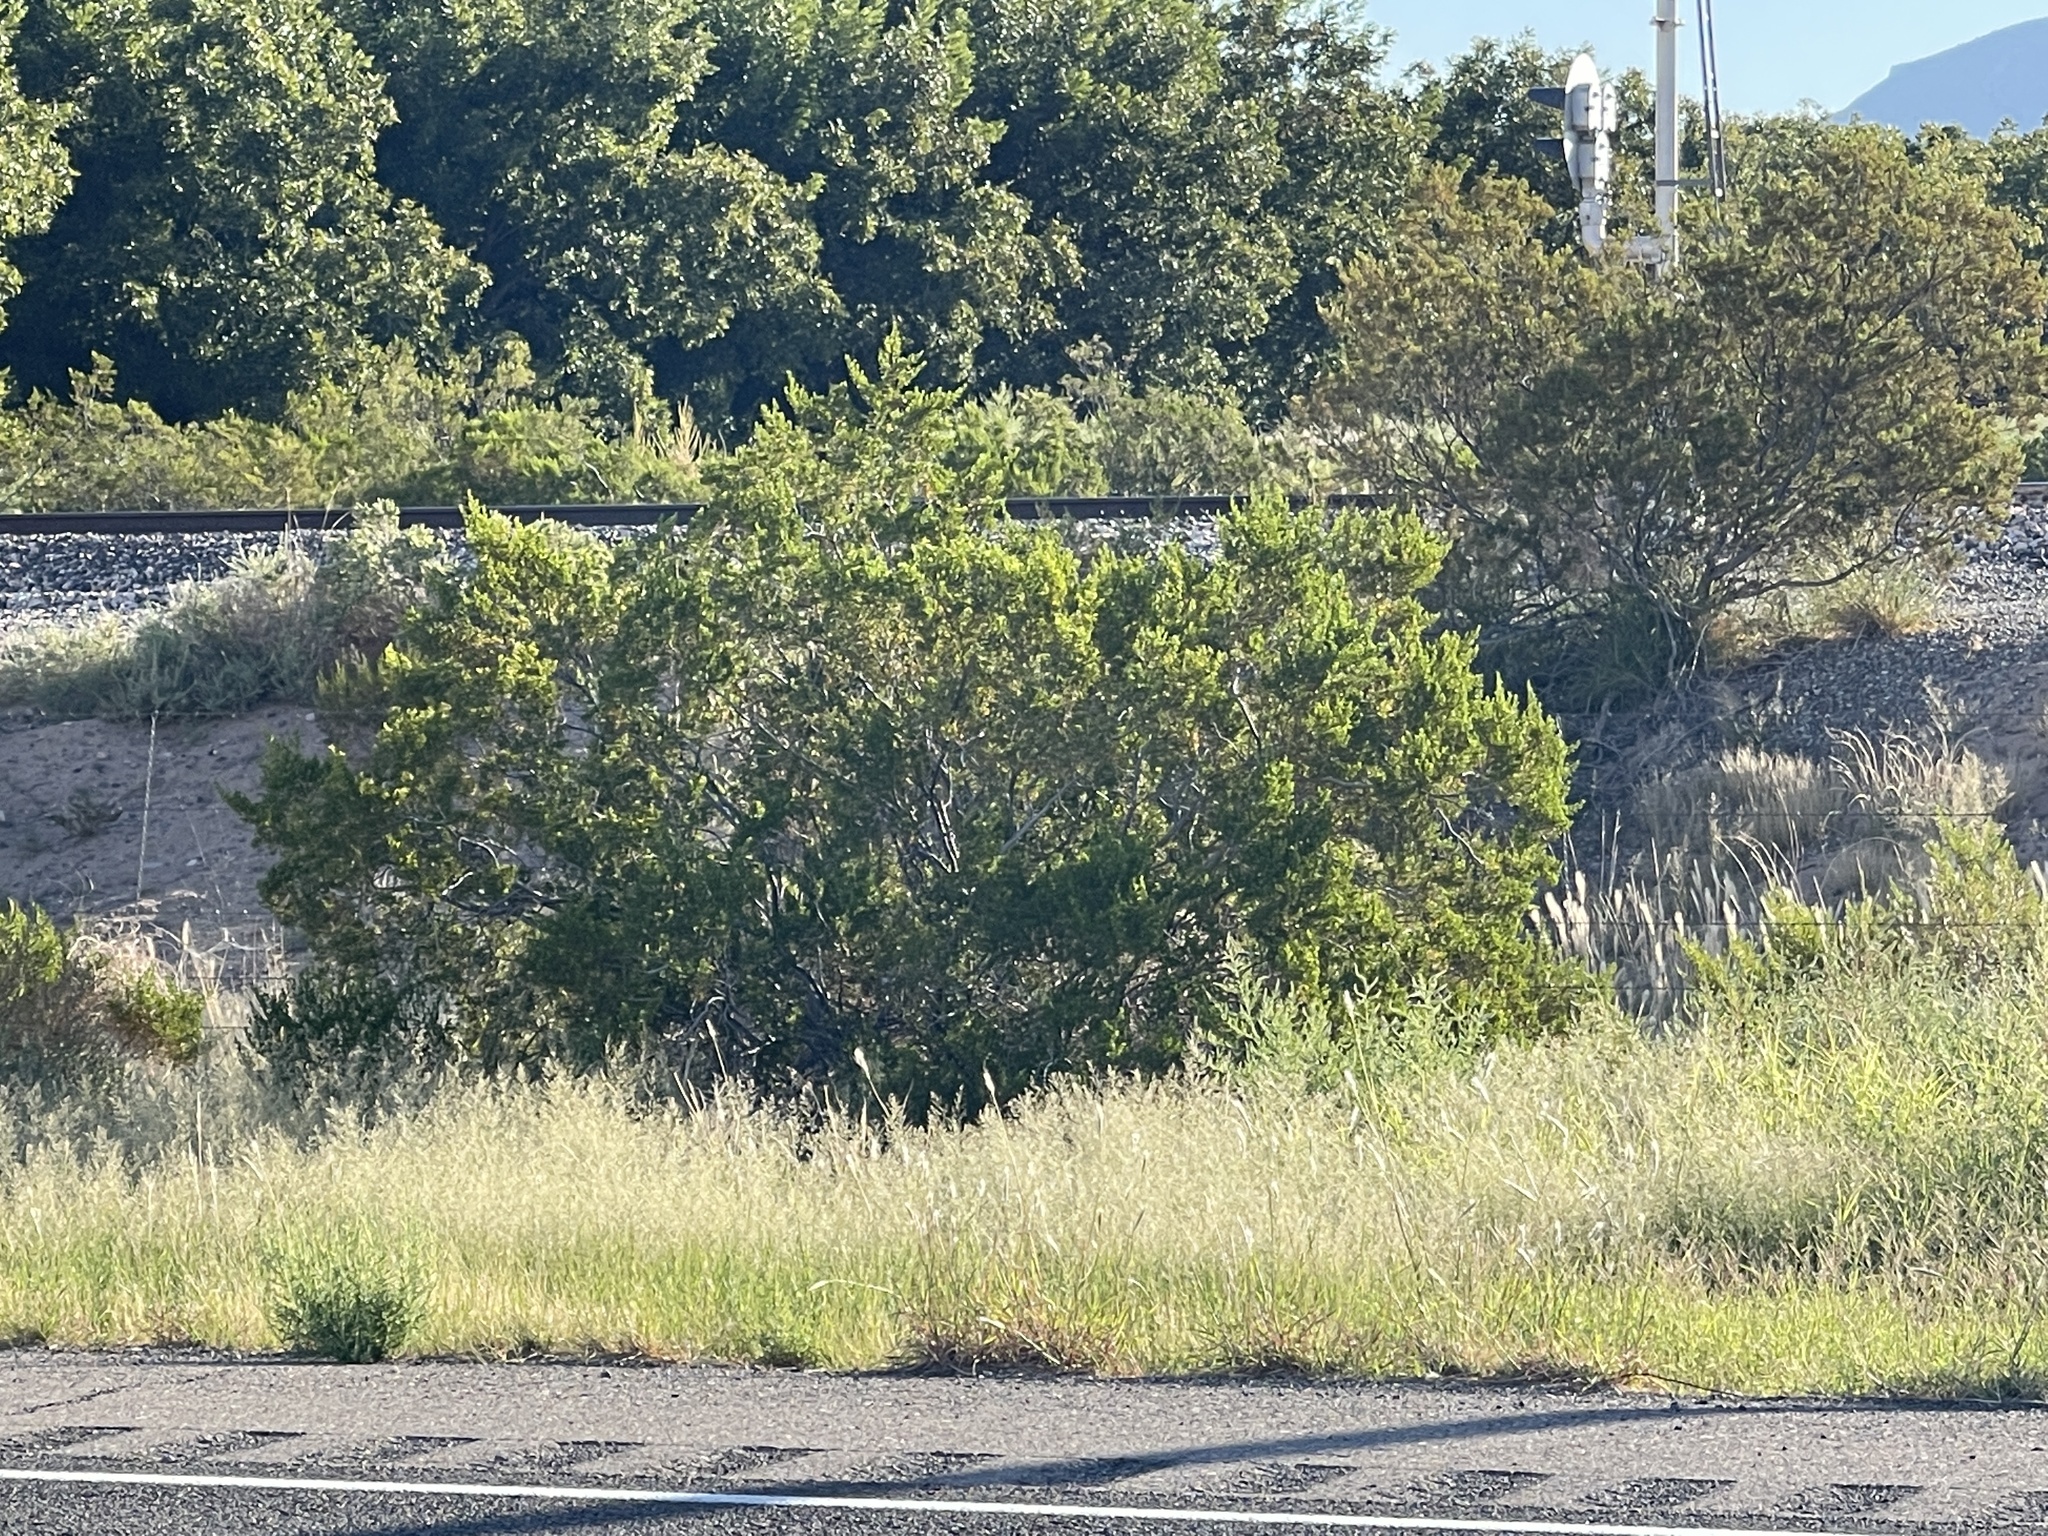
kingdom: Plantae
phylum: Tracheophyta
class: Magnoliopsida
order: Zygophyllales
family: Zygophyllaceae
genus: Larrea
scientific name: Larrea tridentata
